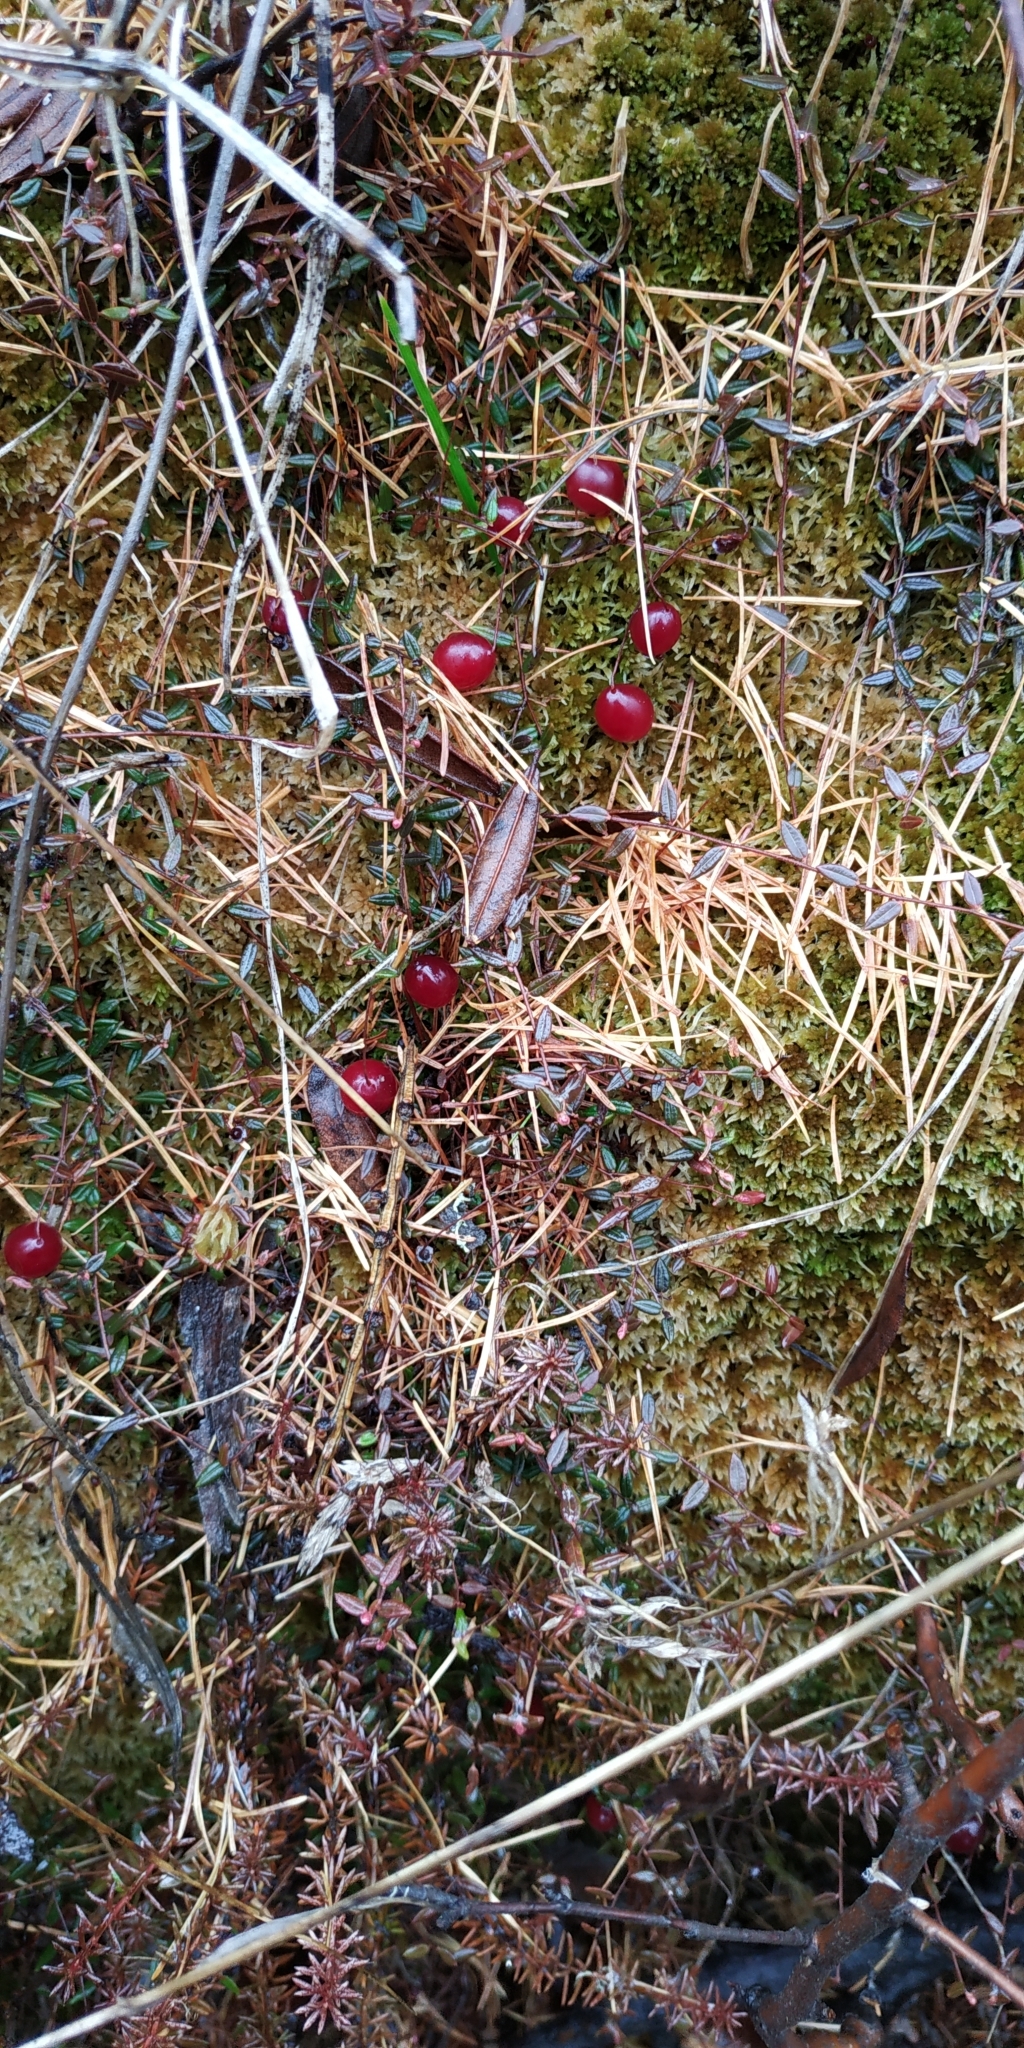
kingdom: Plantae
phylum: Tracheophyta
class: Magnoliopsida
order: Ericales
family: Ericaceae
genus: Vaccinium
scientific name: Vaccinium microcarpum
